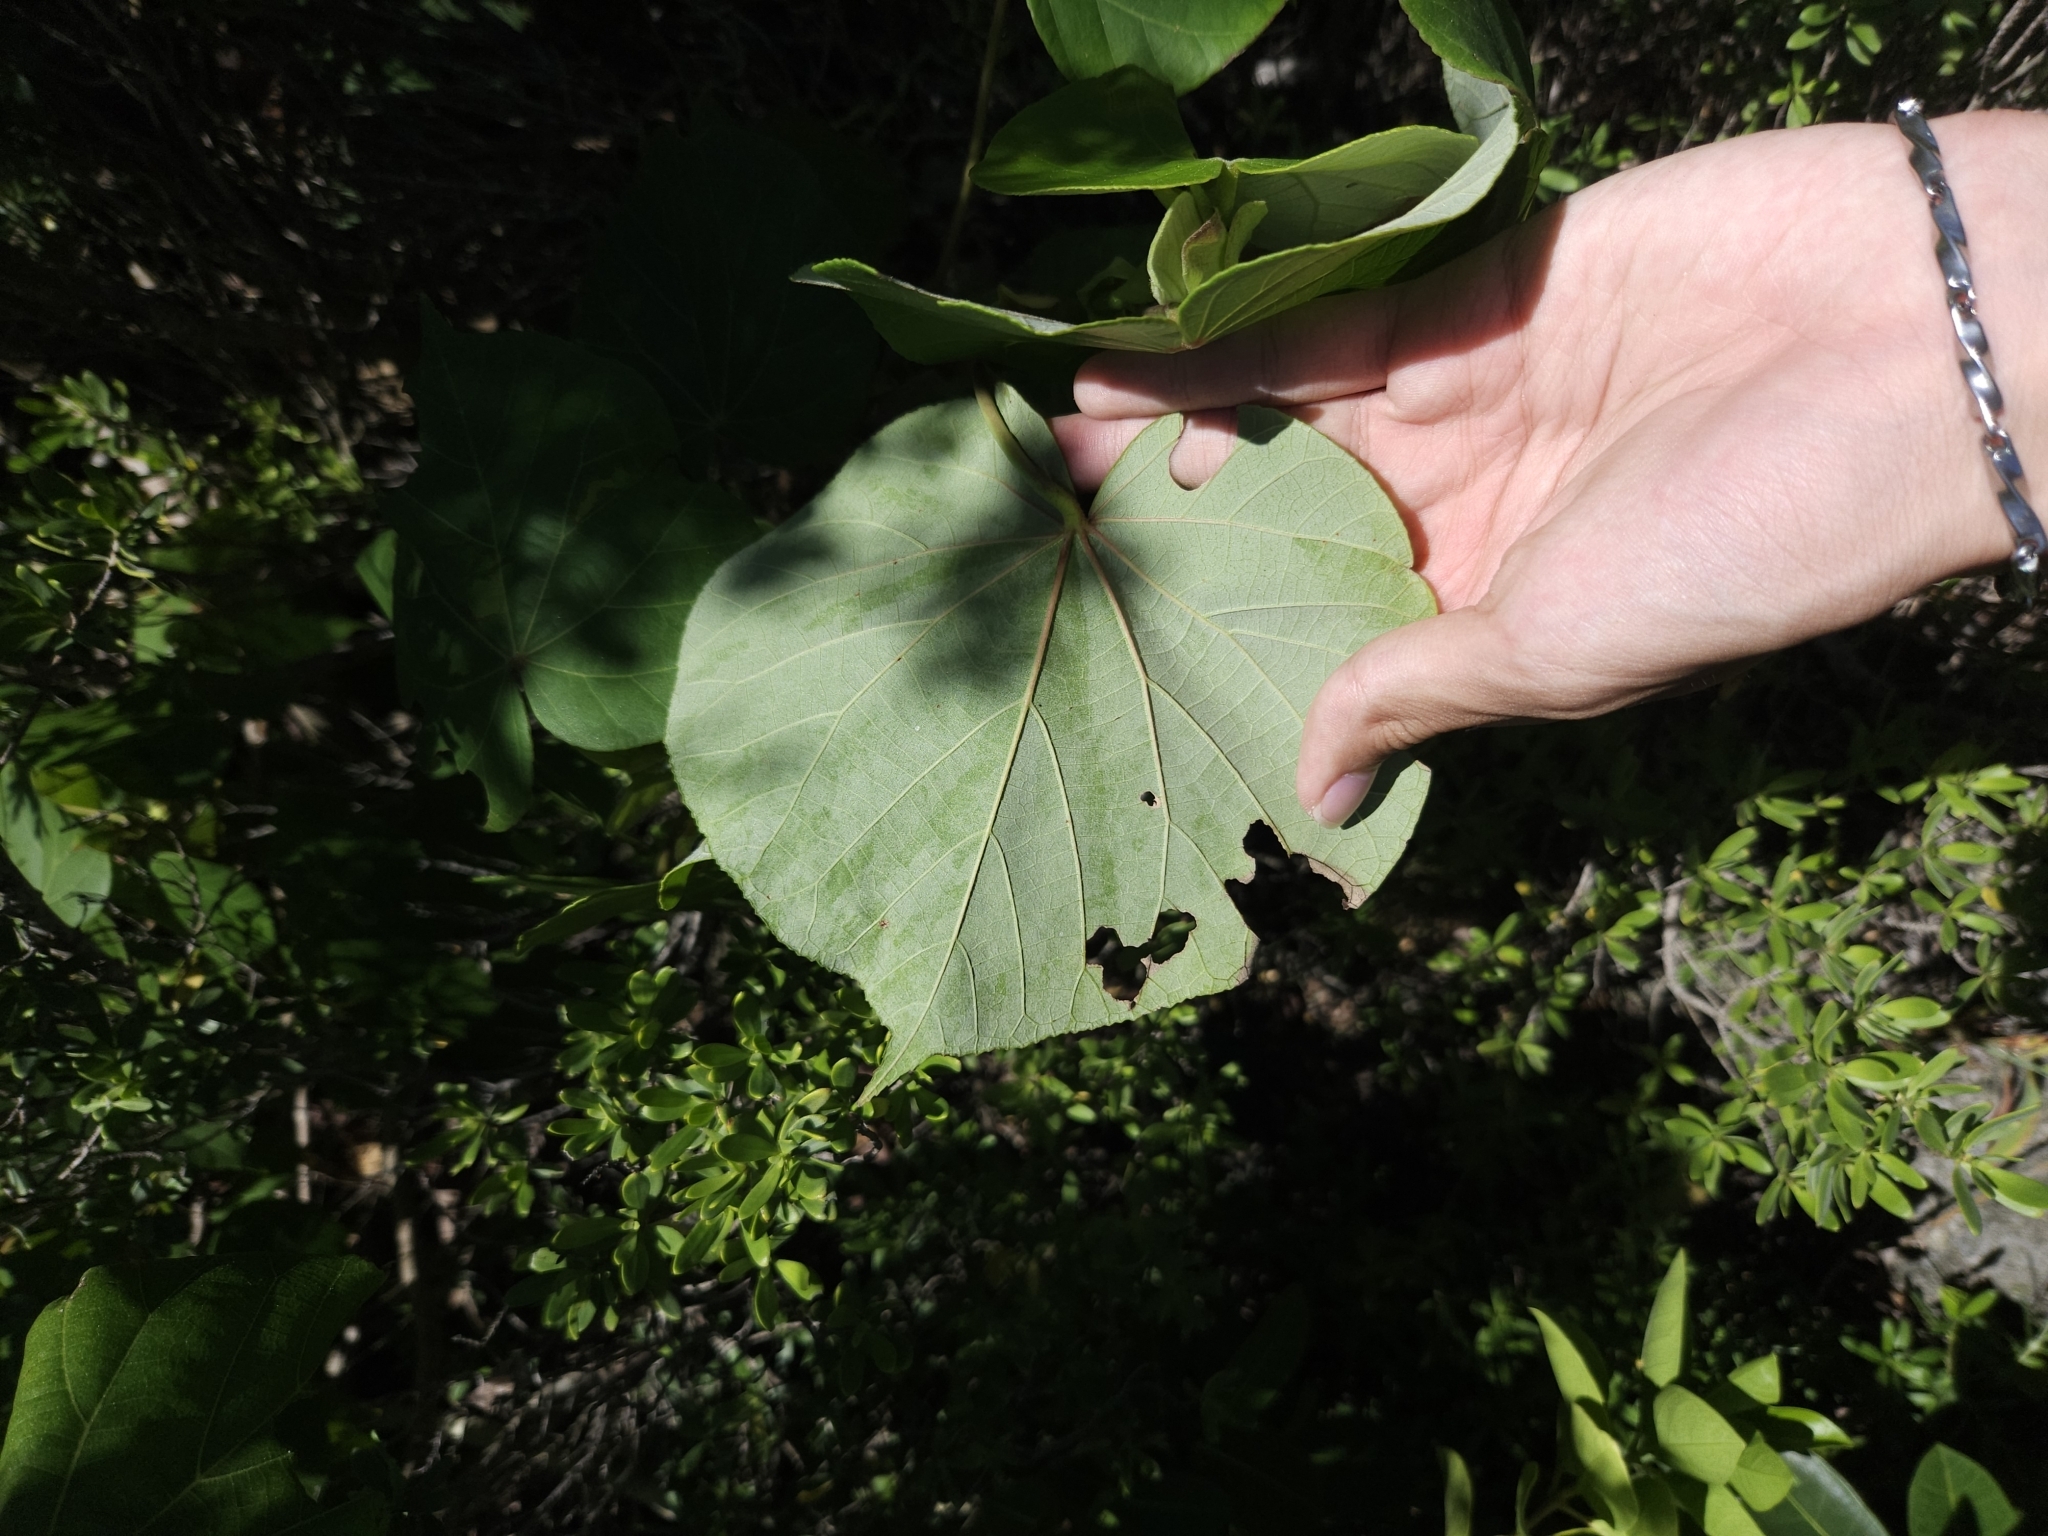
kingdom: Plantae
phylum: Tracheophyta
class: Magnoliopsida
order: Malvales
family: Malvaceae
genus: Talipariti
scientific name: Talipariti tiliaceum
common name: Sea hibiscus
